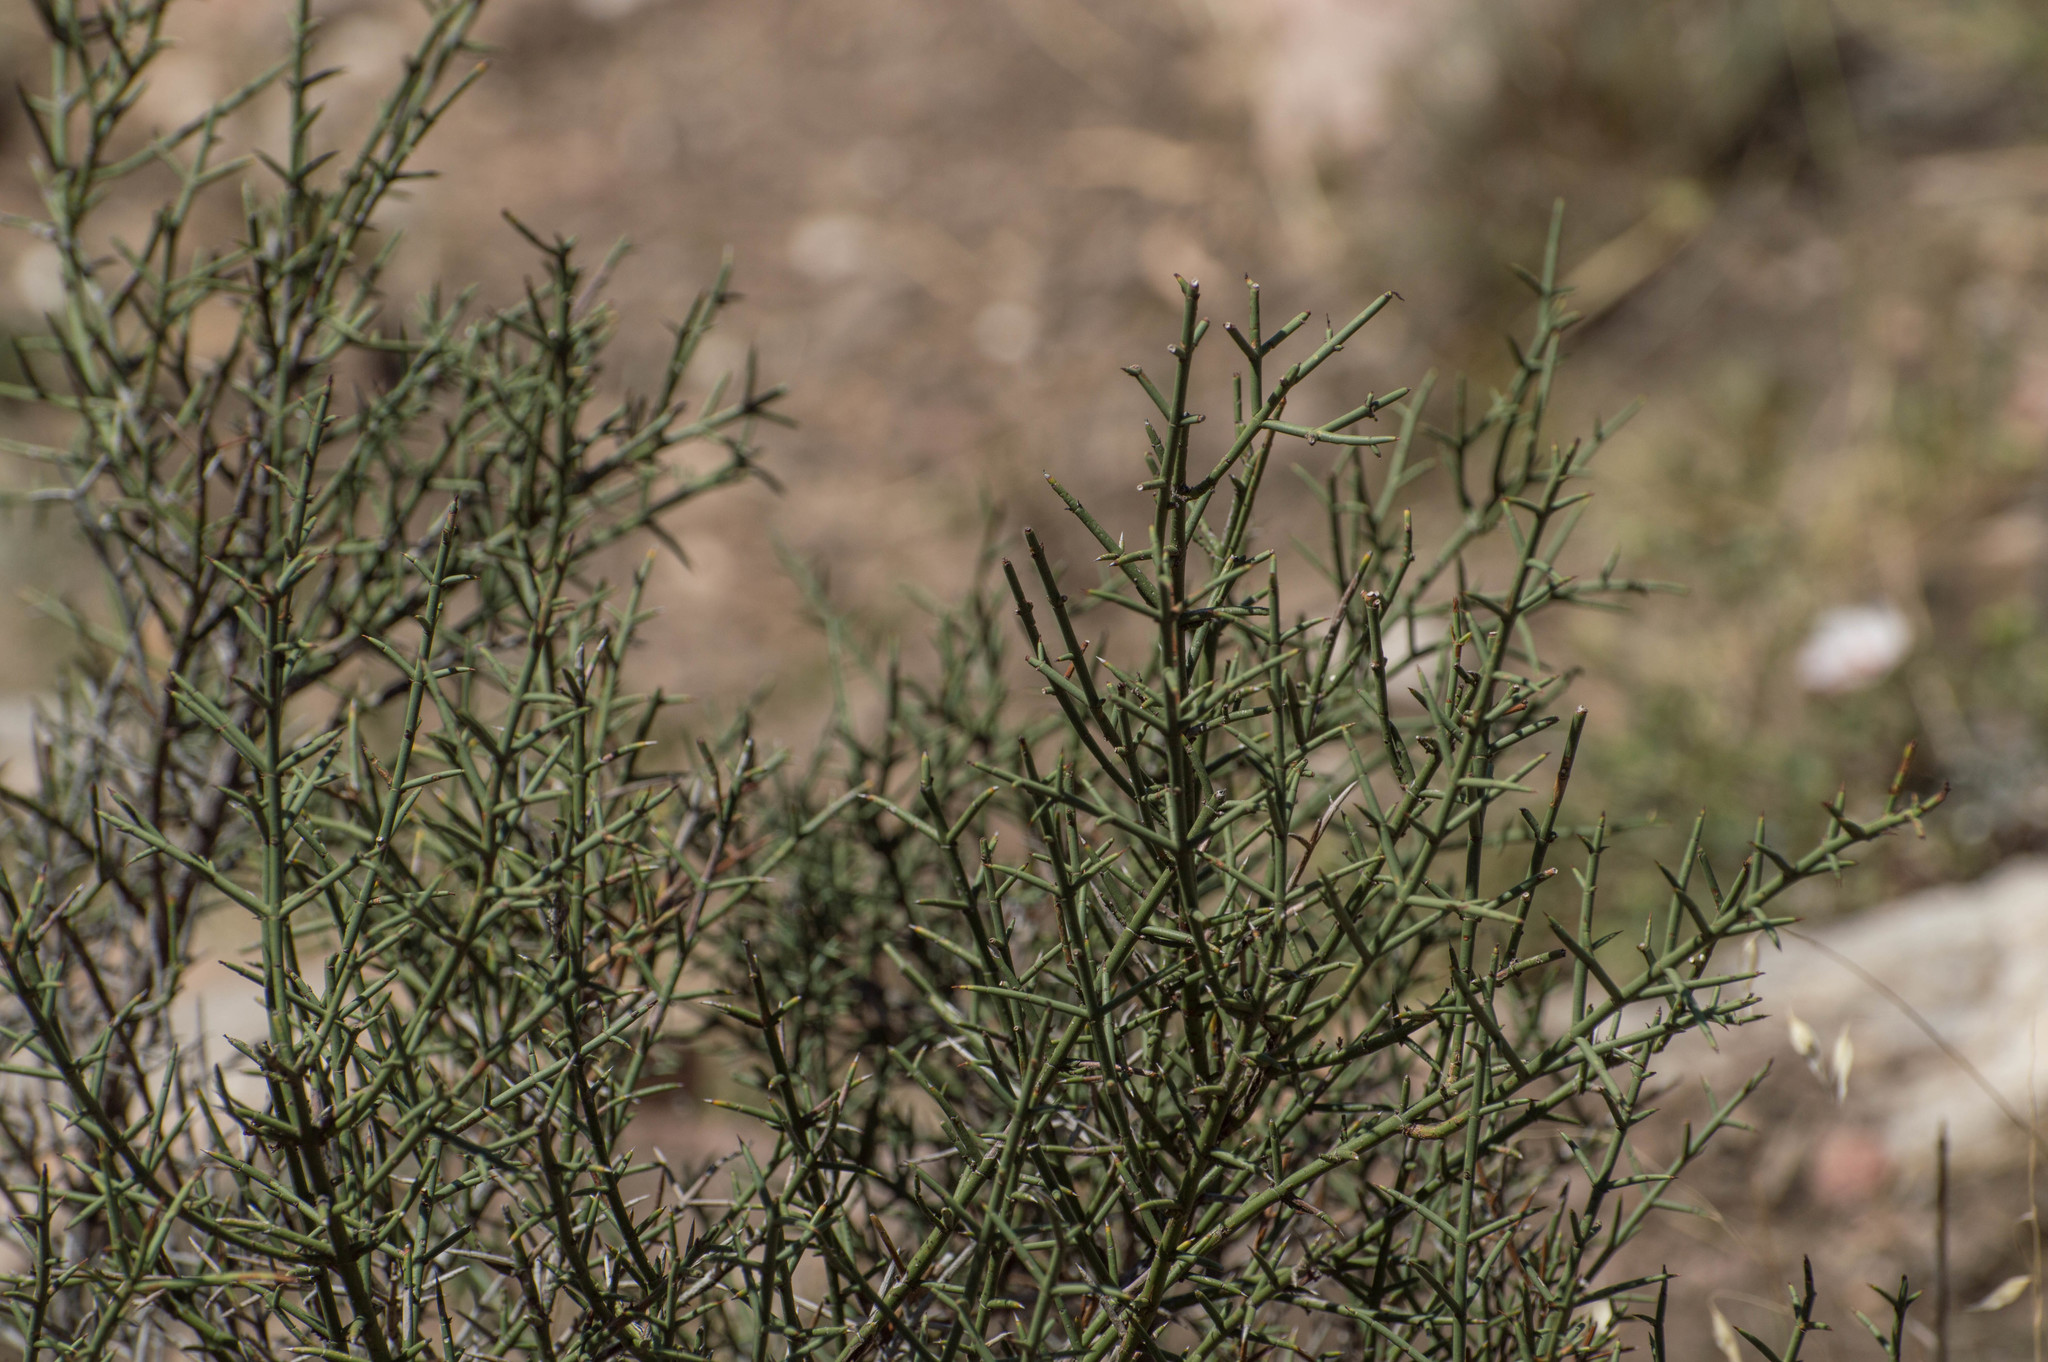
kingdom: Plantae
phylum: Tracheophyta
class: Magnoliopsida
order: Rosales
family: Rhamnaceae
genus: Discaria
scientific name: Discaria americana
